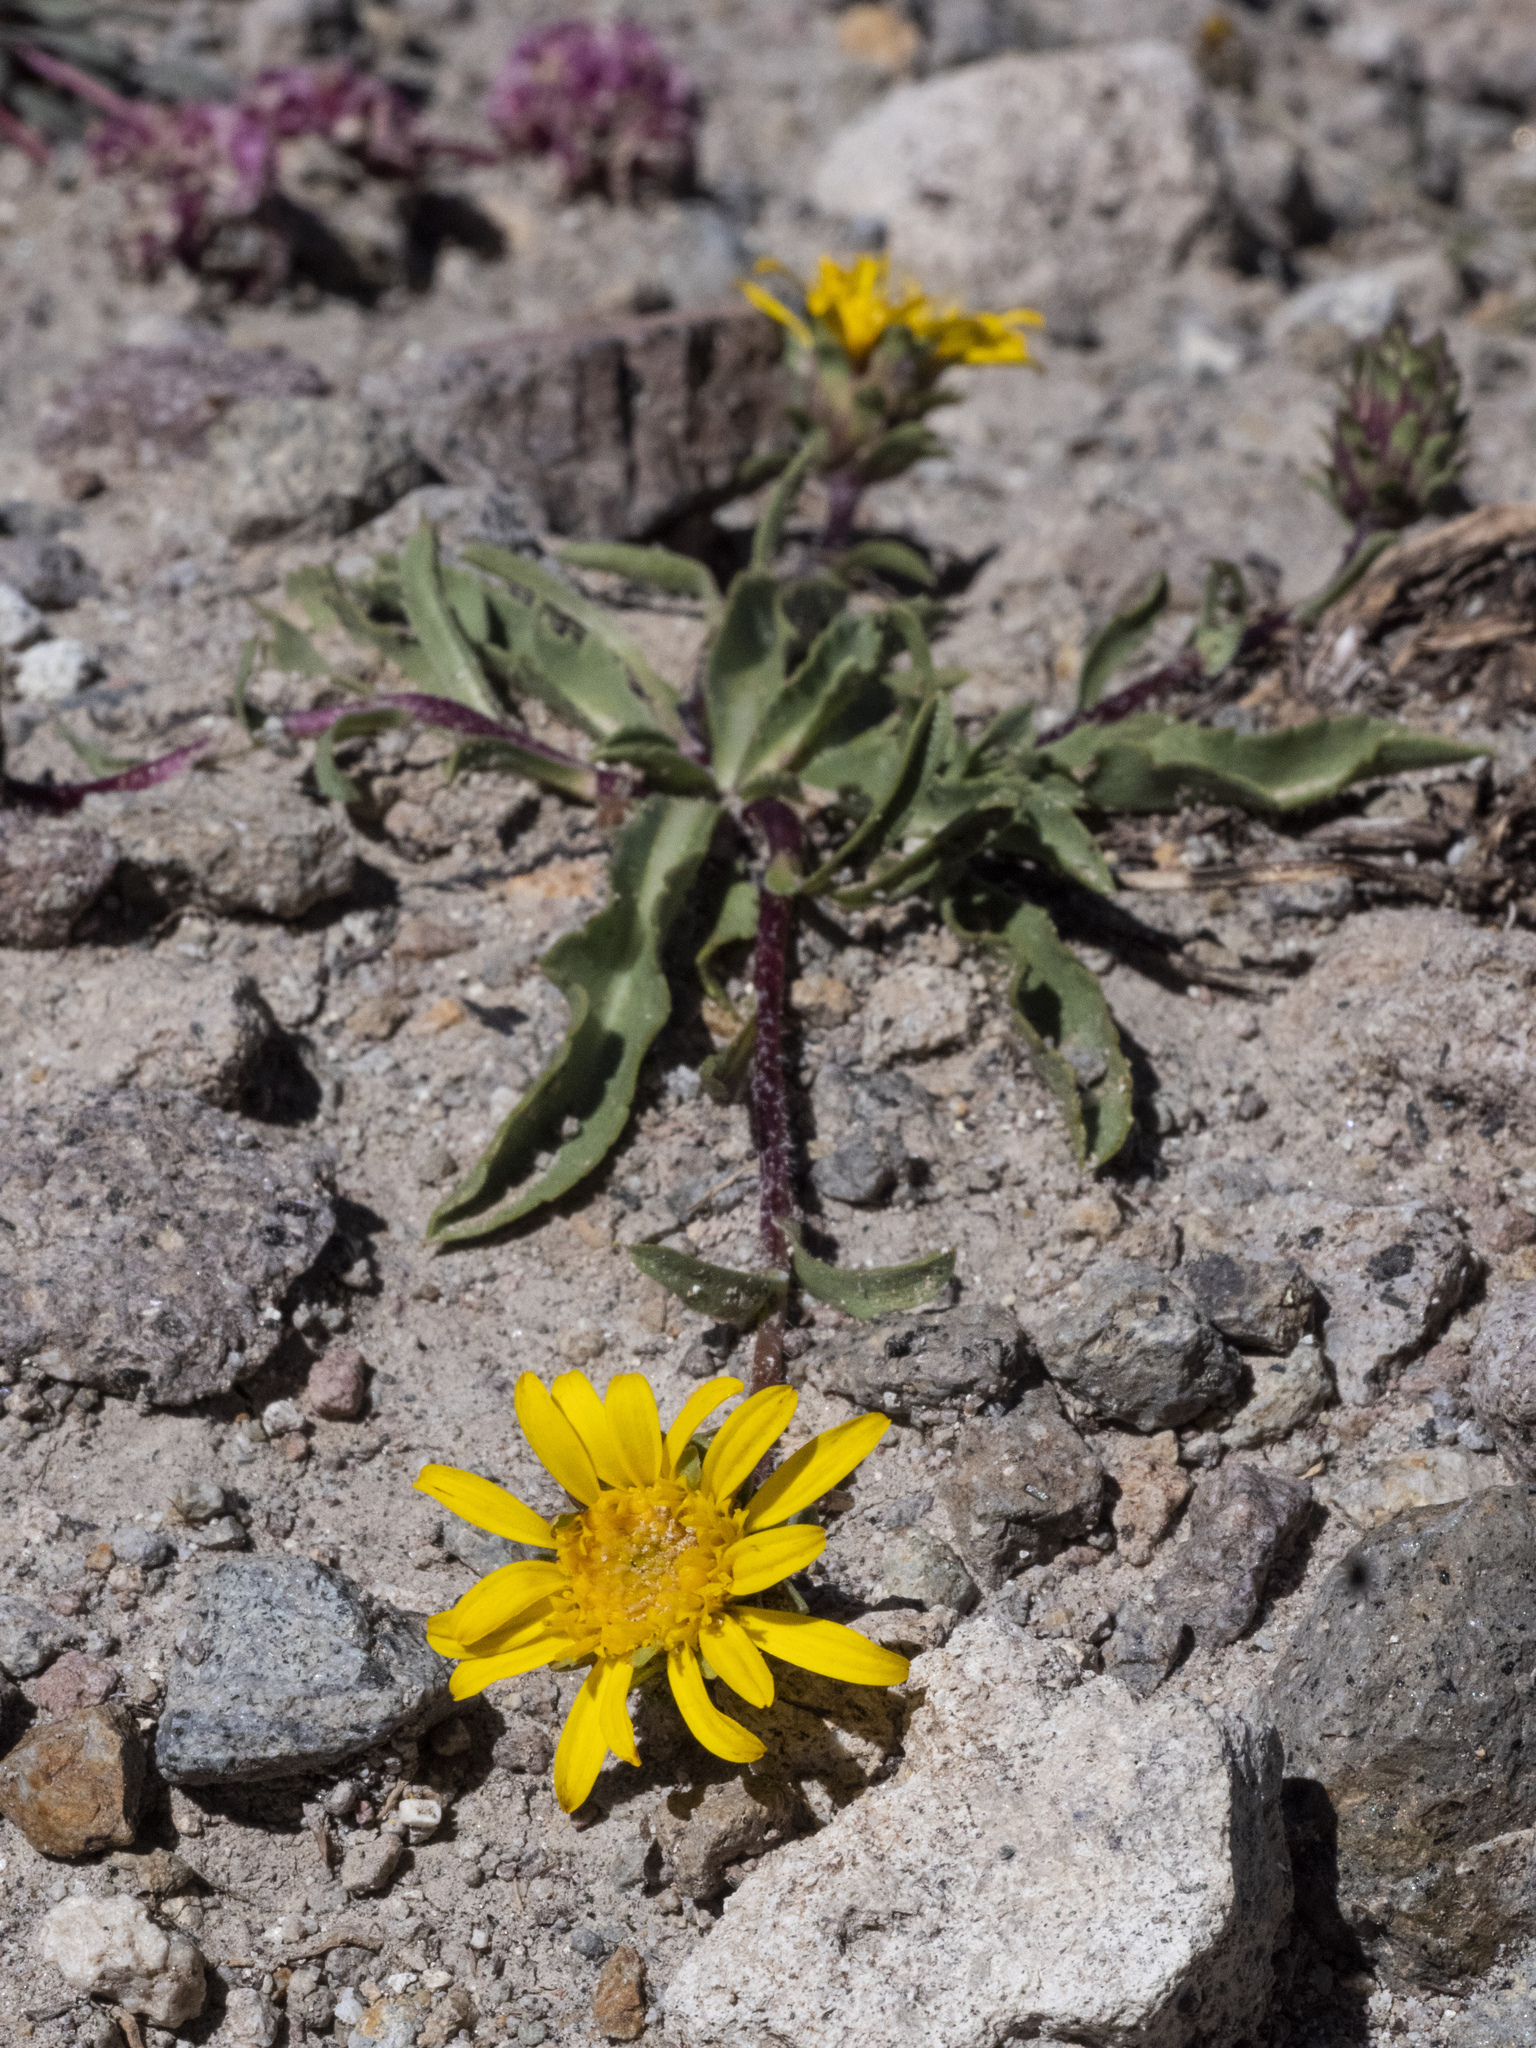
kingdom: Plantae
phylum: Tracheophyta
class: Magnoliopsida
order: Asterales
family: Asteraceae
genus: Pyrrocoma
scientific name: Pyrrocoma apargioides
